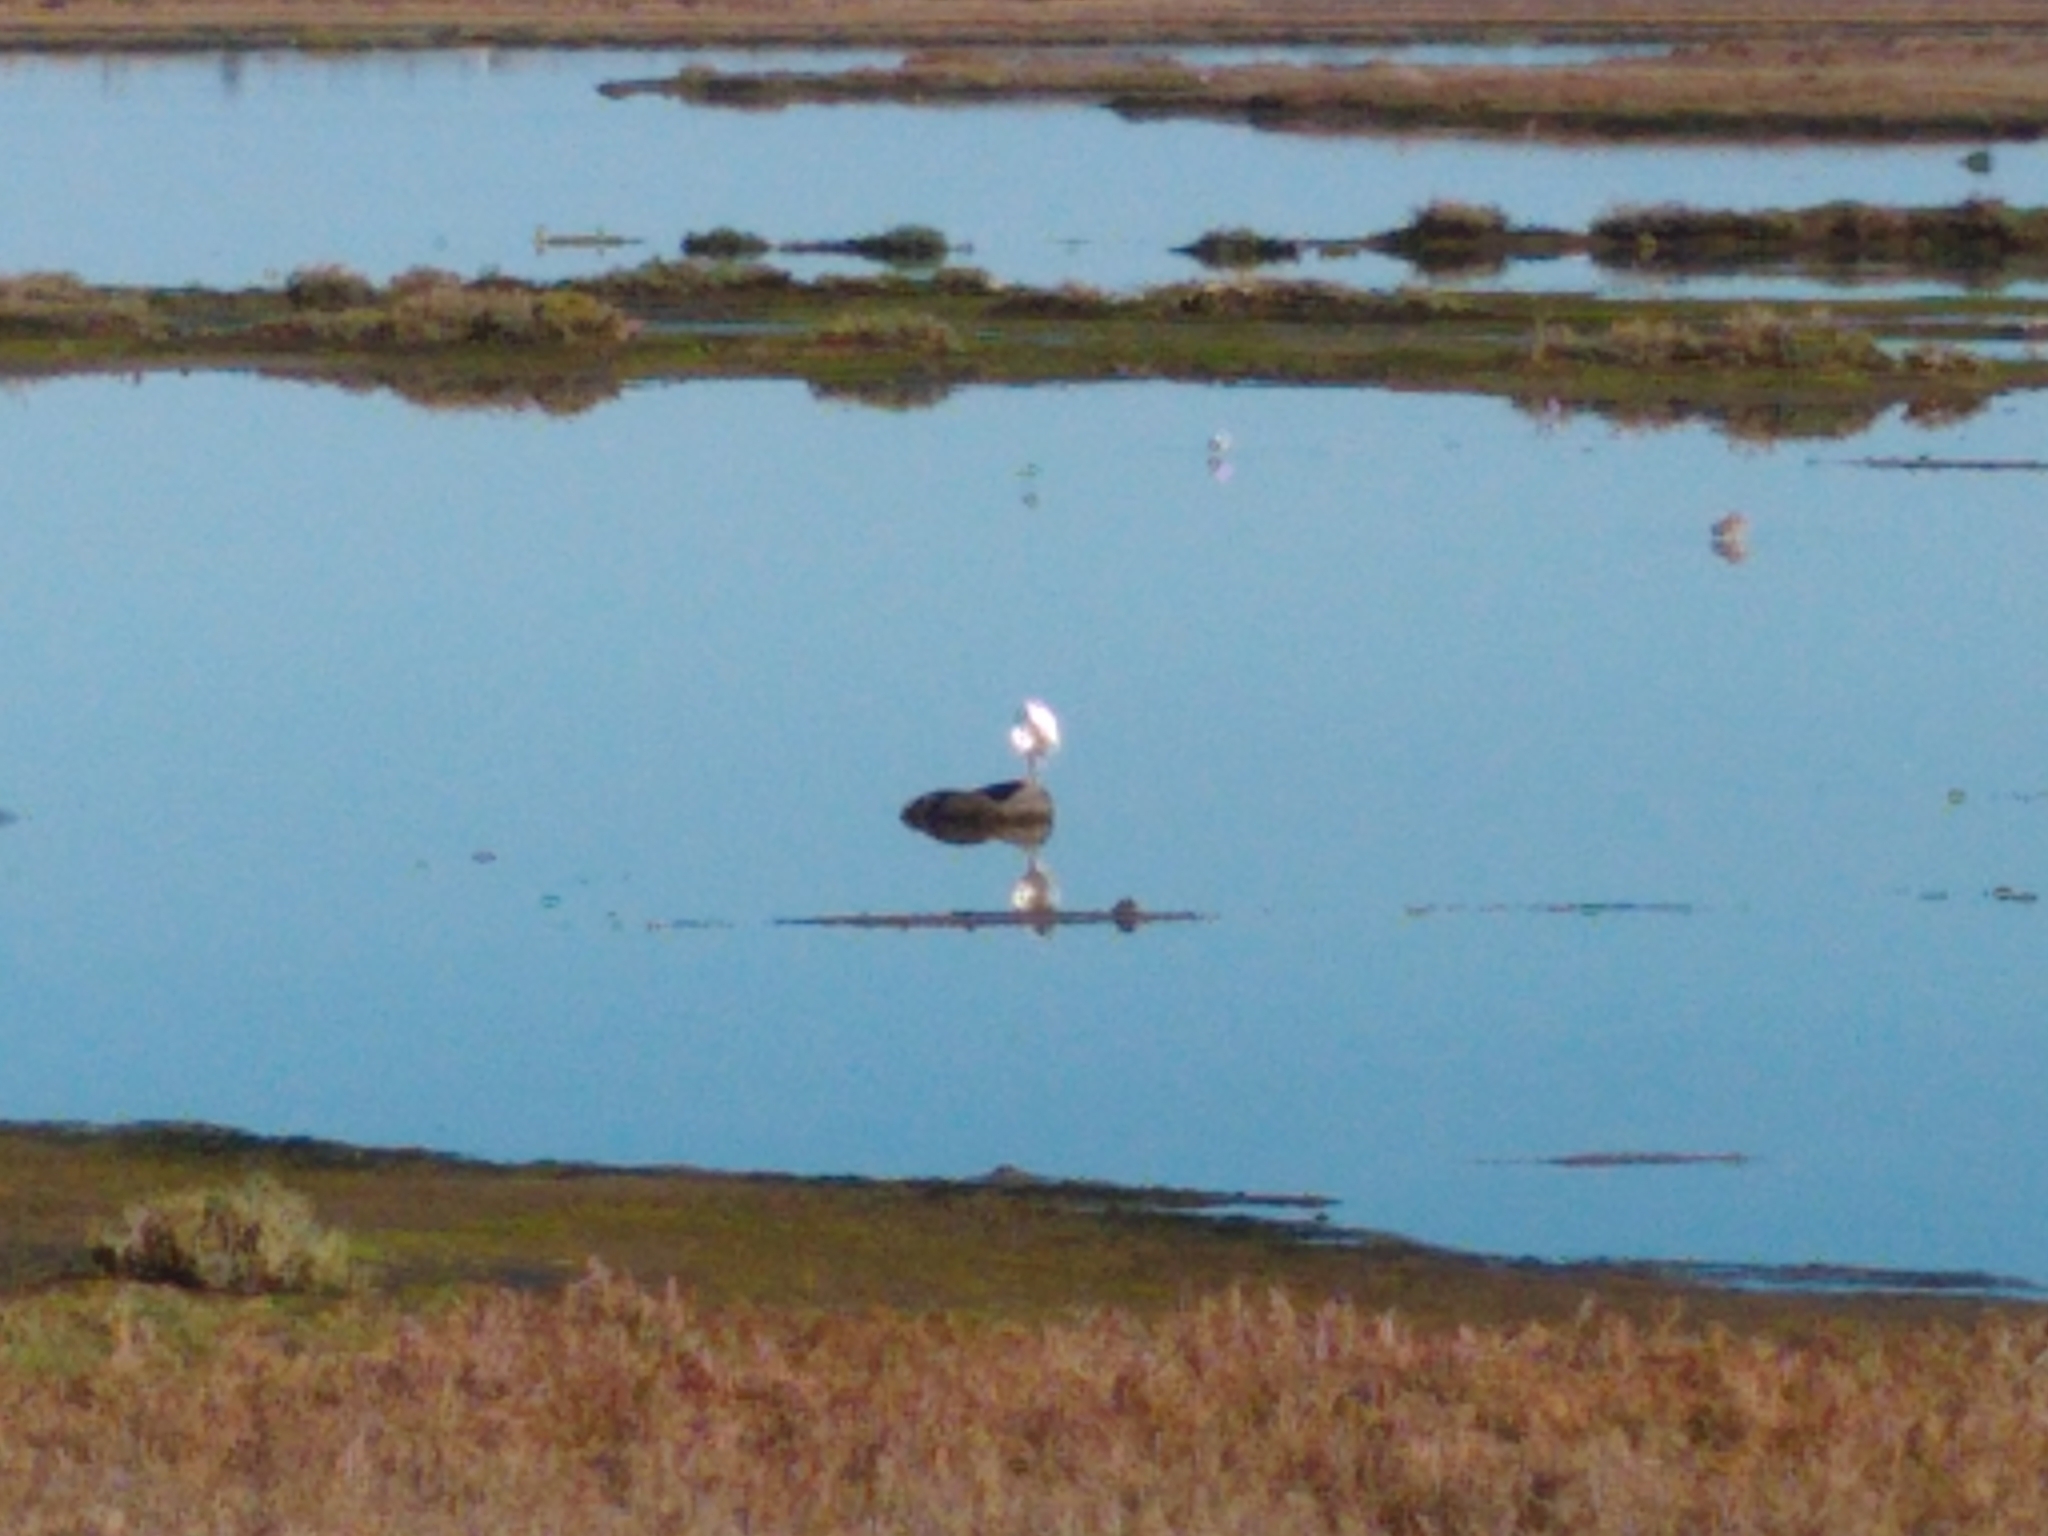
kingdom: Animalia
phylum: Chordata
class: Aves
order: Pelecaniformes
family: Ardeidae
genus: Ardea
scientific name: Ardea alba
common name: Great egret
